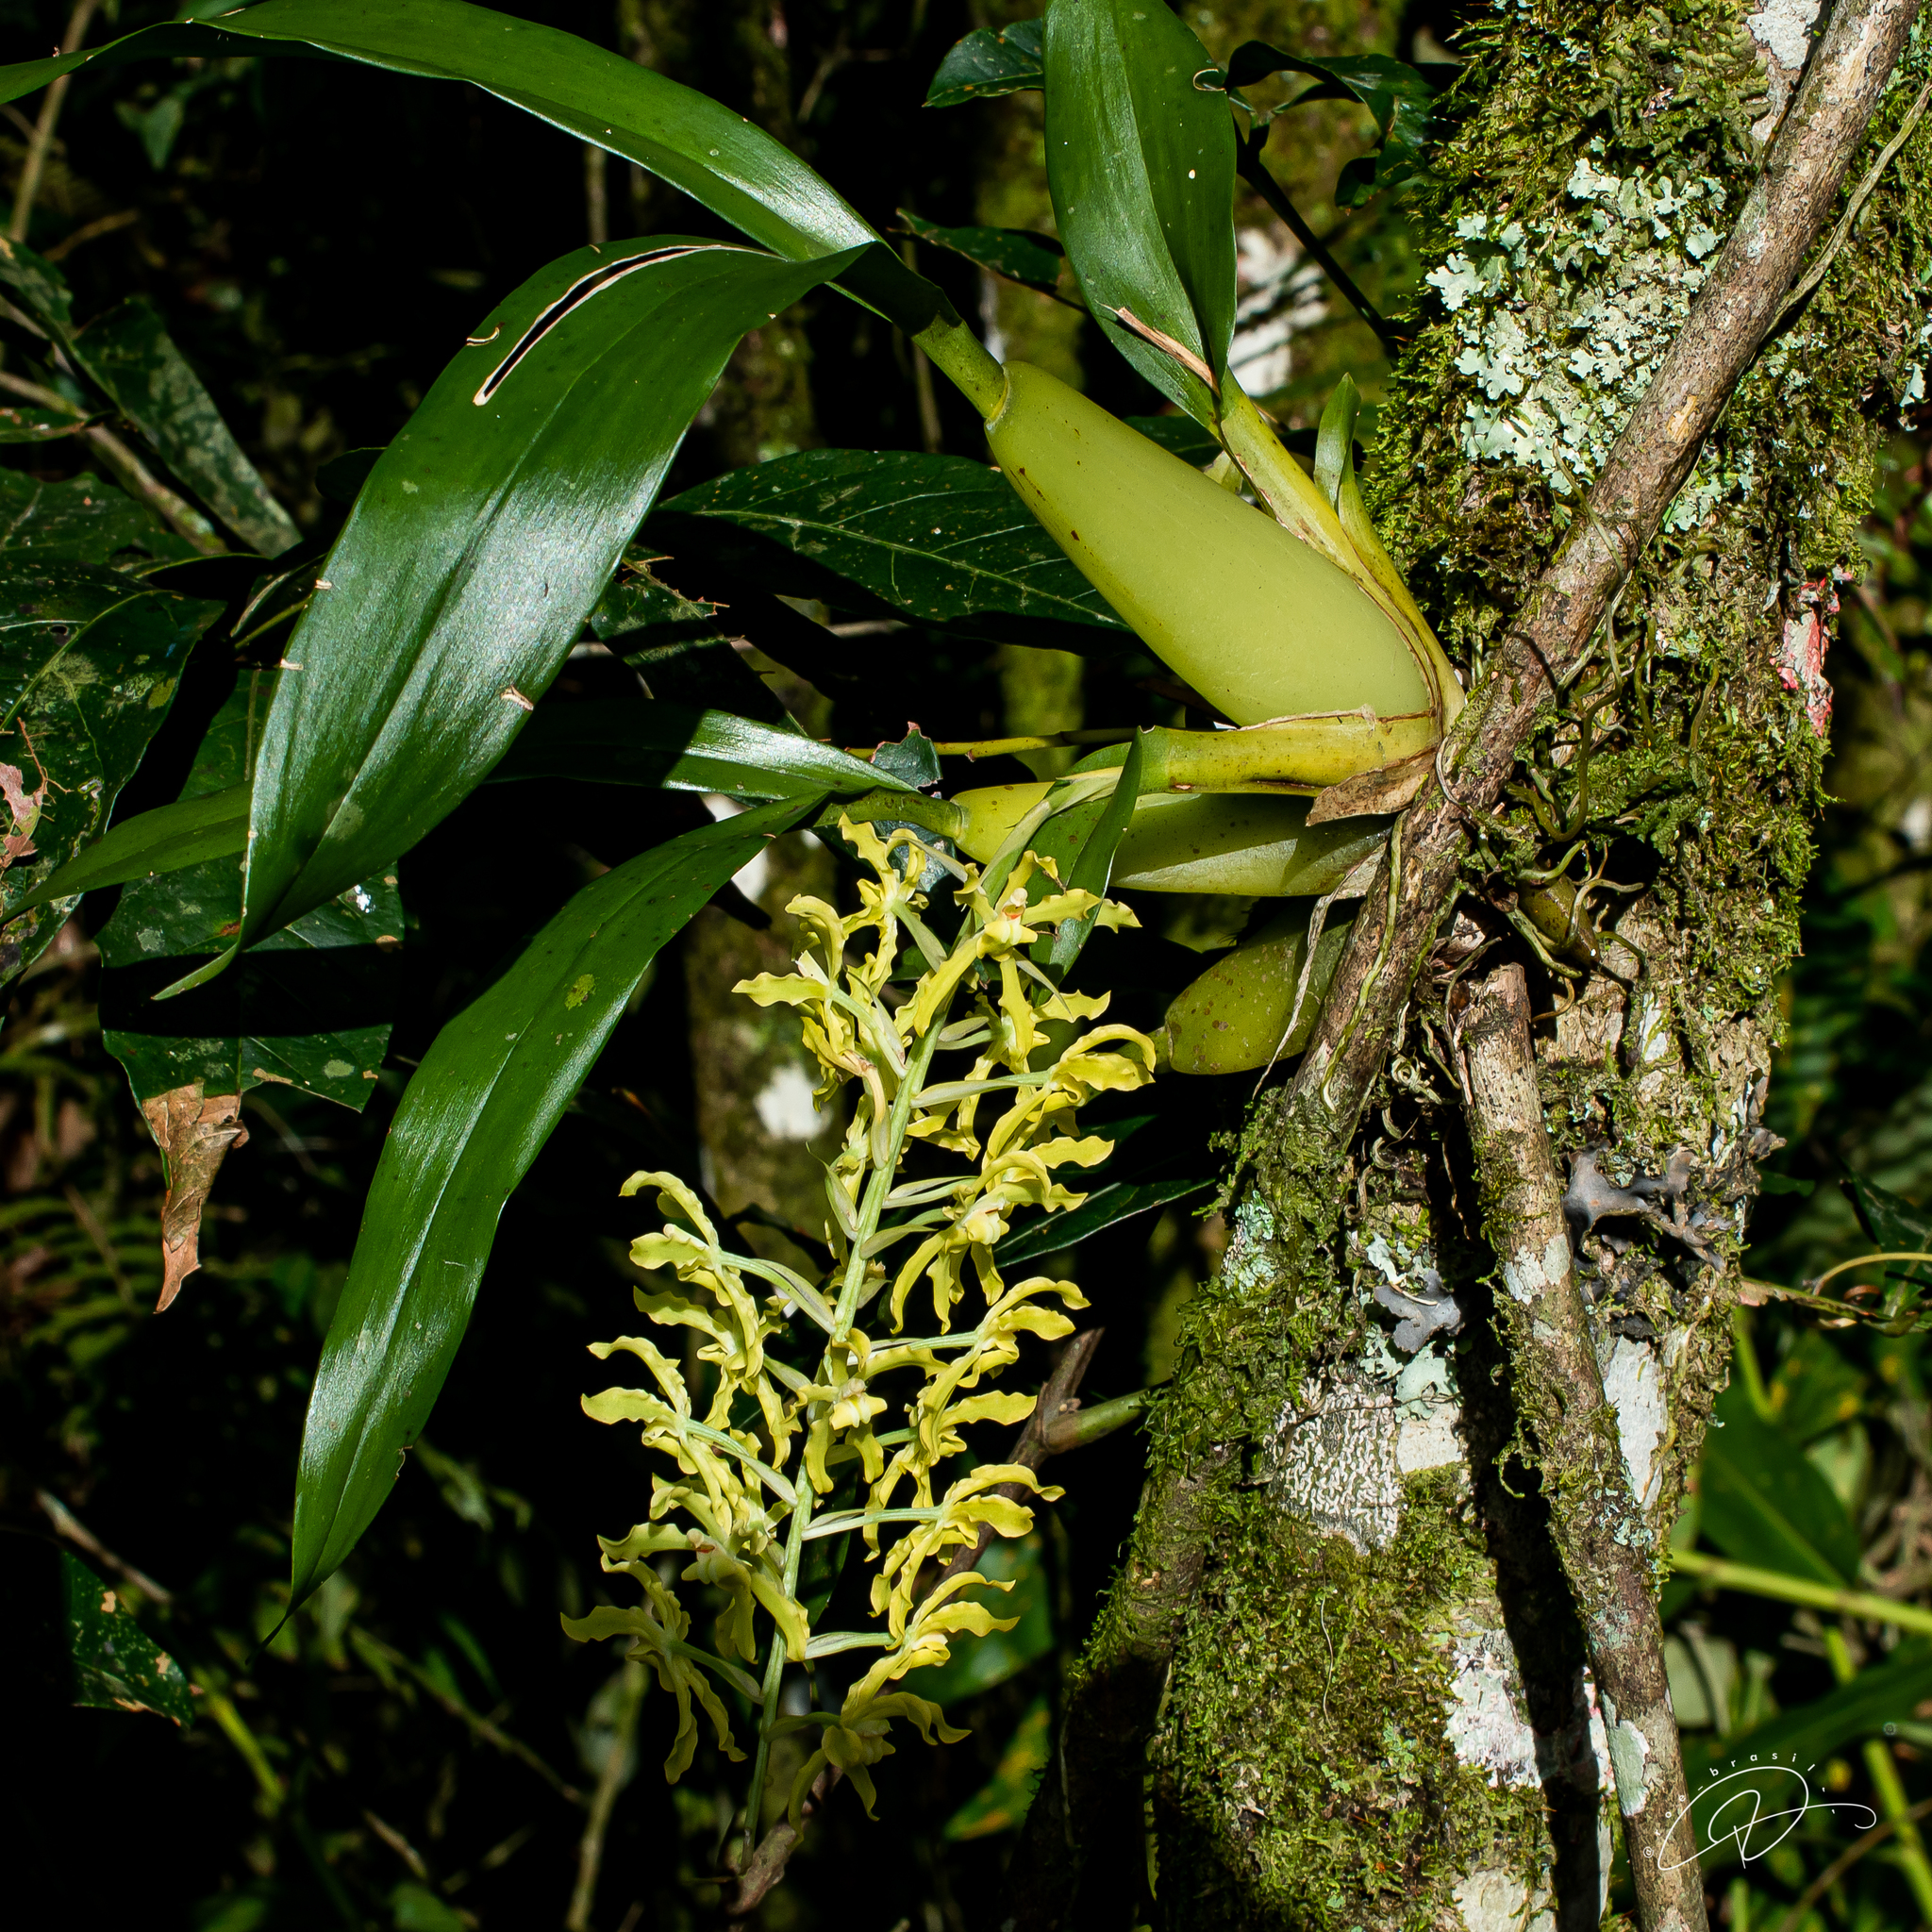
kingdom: Plantae
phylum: Tracheophyta
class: Liliopsida
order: Asparagales
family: Orchidaceae
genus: Gomesa
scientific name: Gomesa crispa
